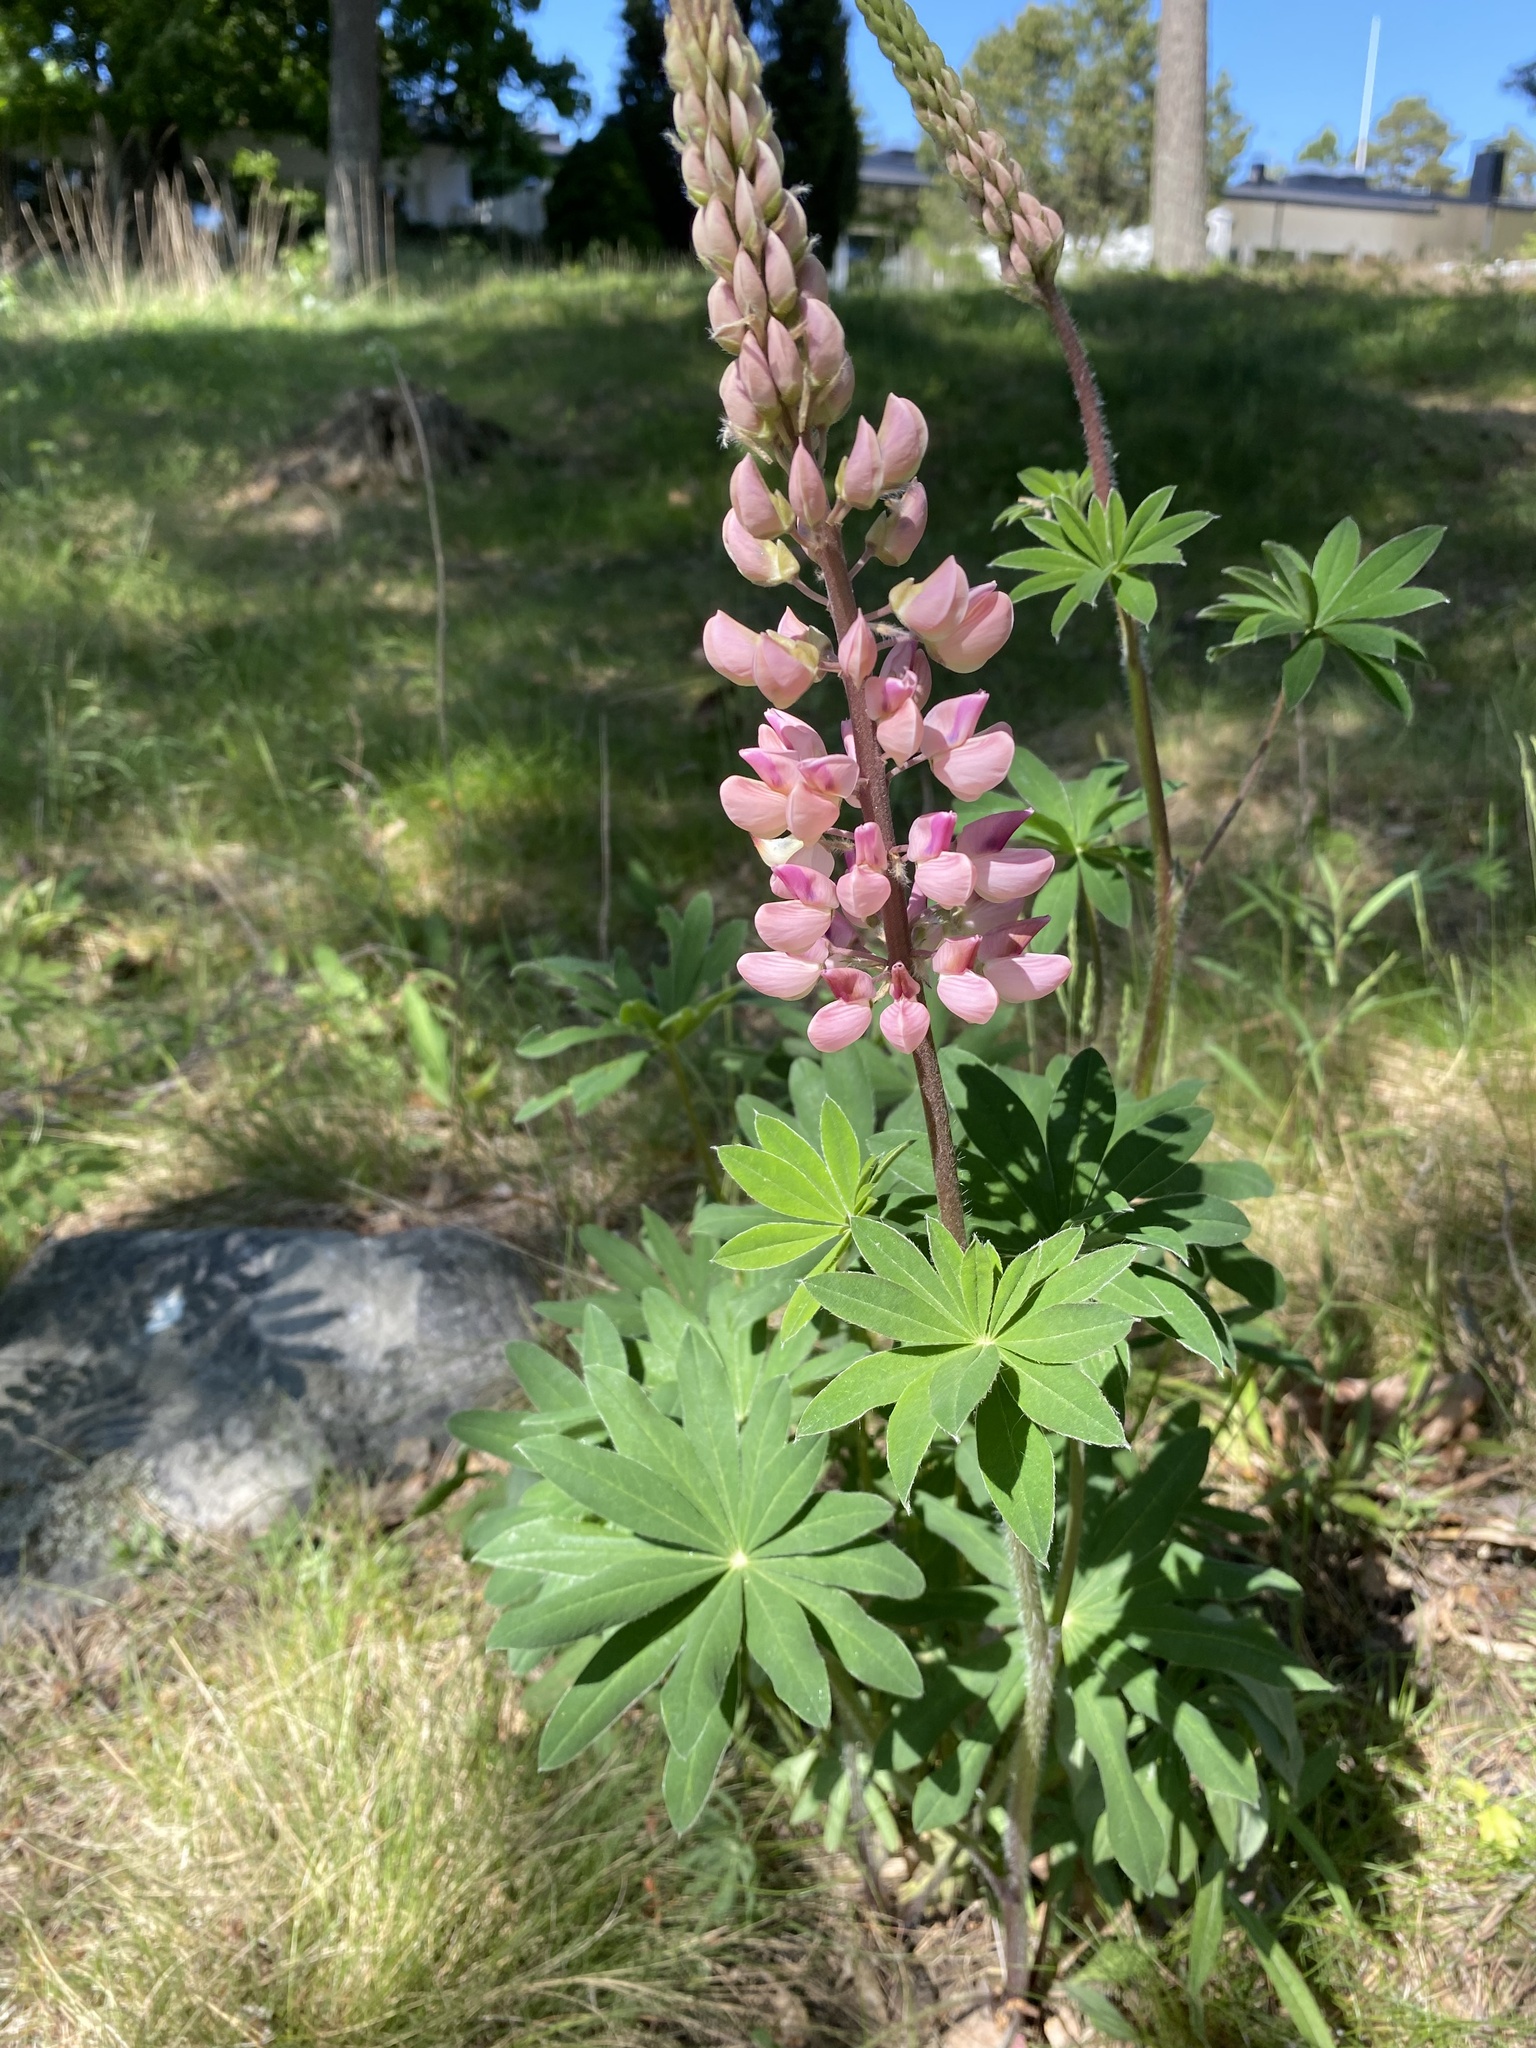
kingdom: Plantae
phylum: Tracheophyta
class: Magnoliopsida
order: Fabales
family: Fabaceae
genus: Lupinus
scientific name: Lupinus polyphyllus
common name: Garden lupin
